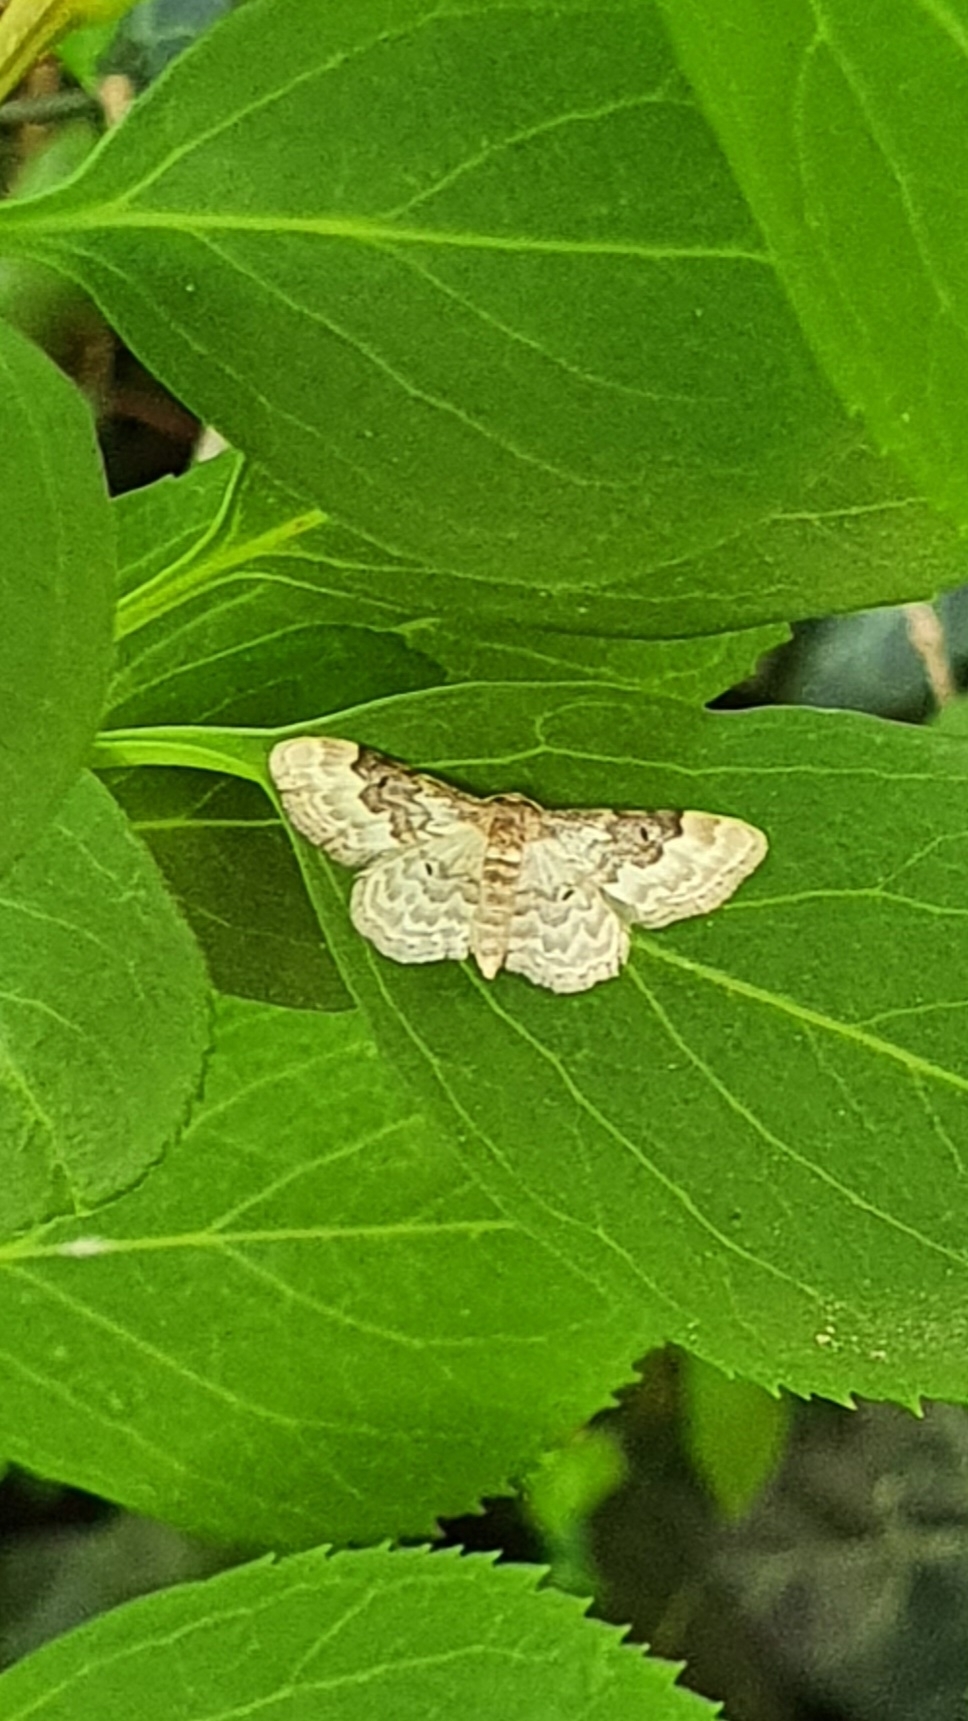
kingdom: Animalia
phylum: Arthropoda
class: Insecta
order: Lepidoptera
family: Geometridae
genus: Idaea
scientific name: Idaea rusticata
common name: Least carpet
